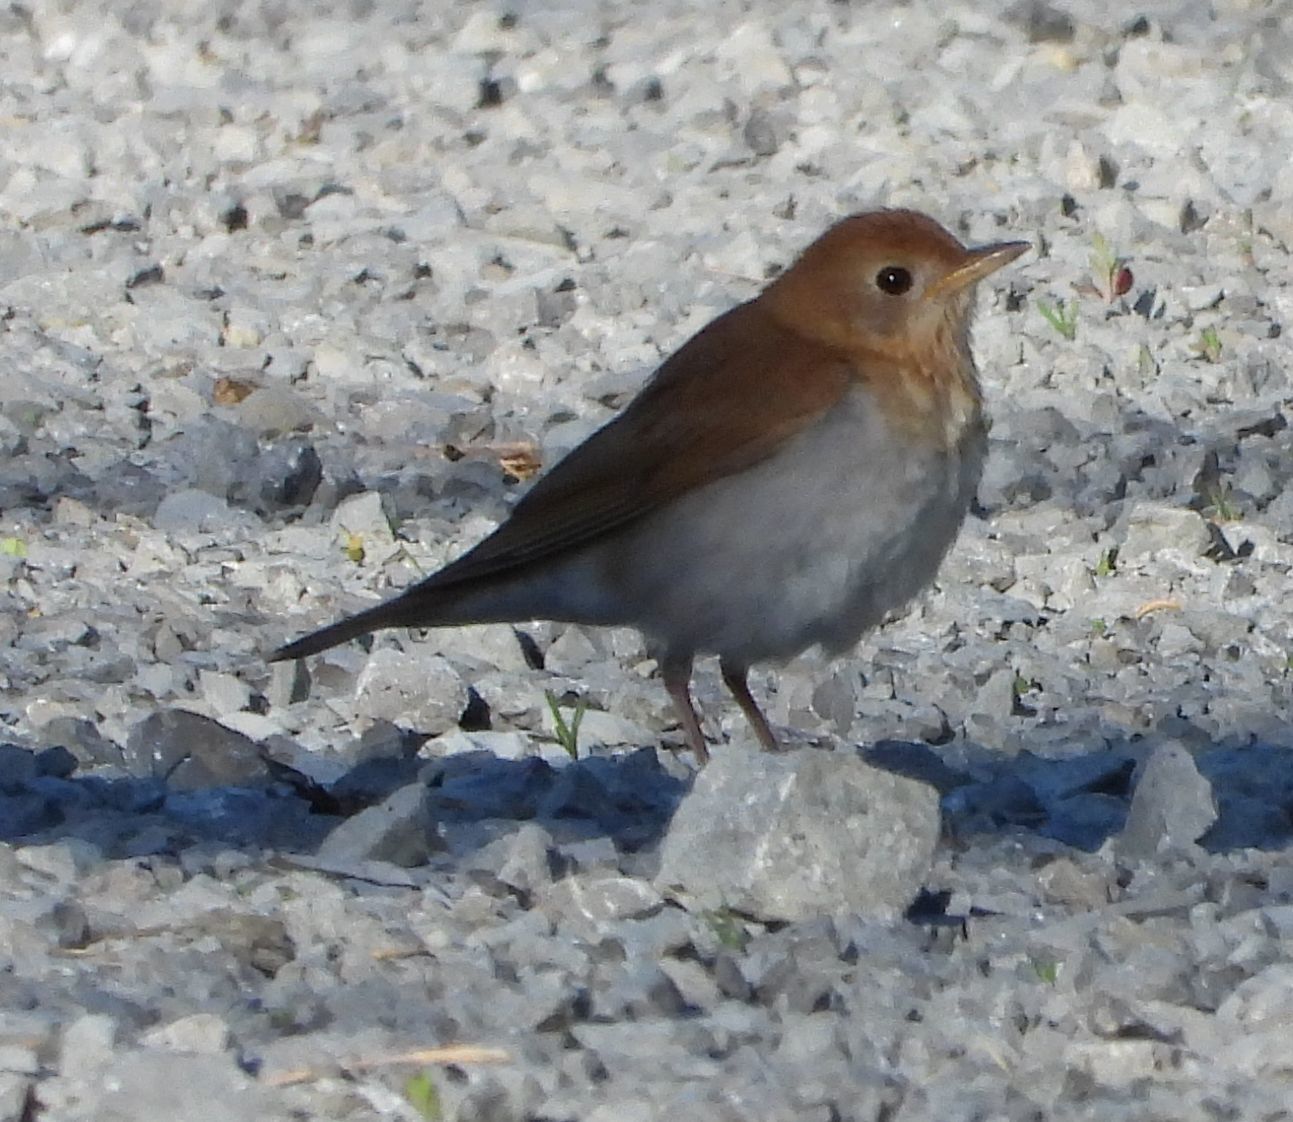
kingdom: Animalia
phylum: Chordata
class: Aves
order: Passeriformes
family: Turdidae
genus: Catharus
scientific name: Catharus fuscescens
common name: Veery
